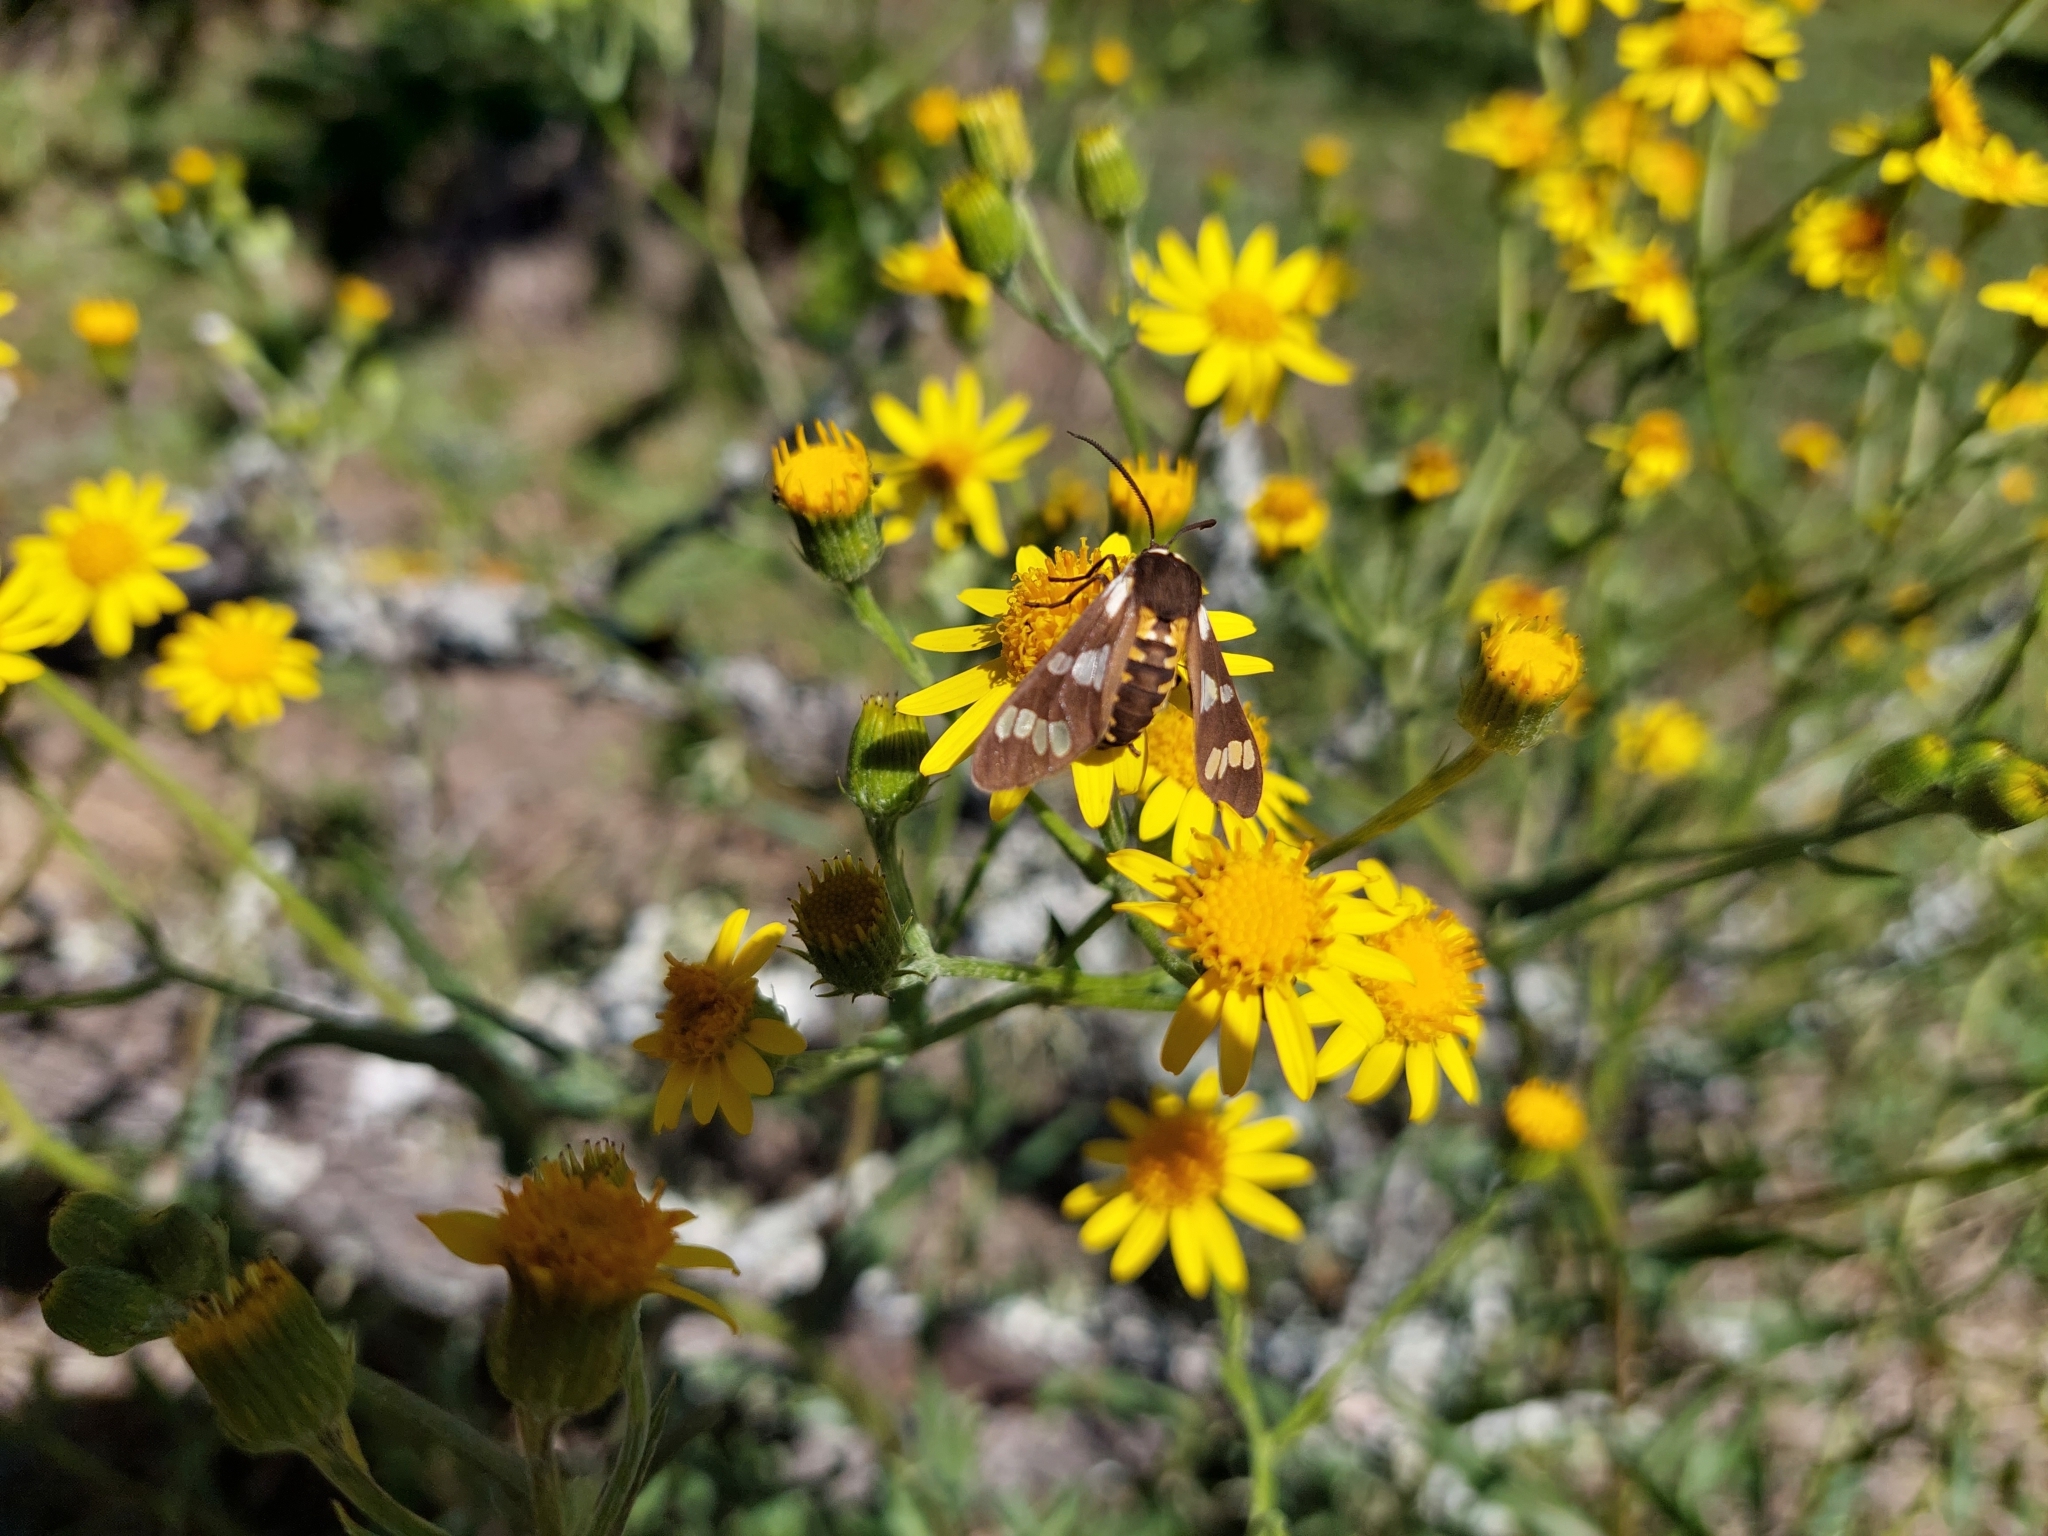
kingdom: Animalia
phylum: Arthropoda
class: Insecta
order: Lepidoptera
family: Erebidae
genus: Eurata
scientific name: Eurata
